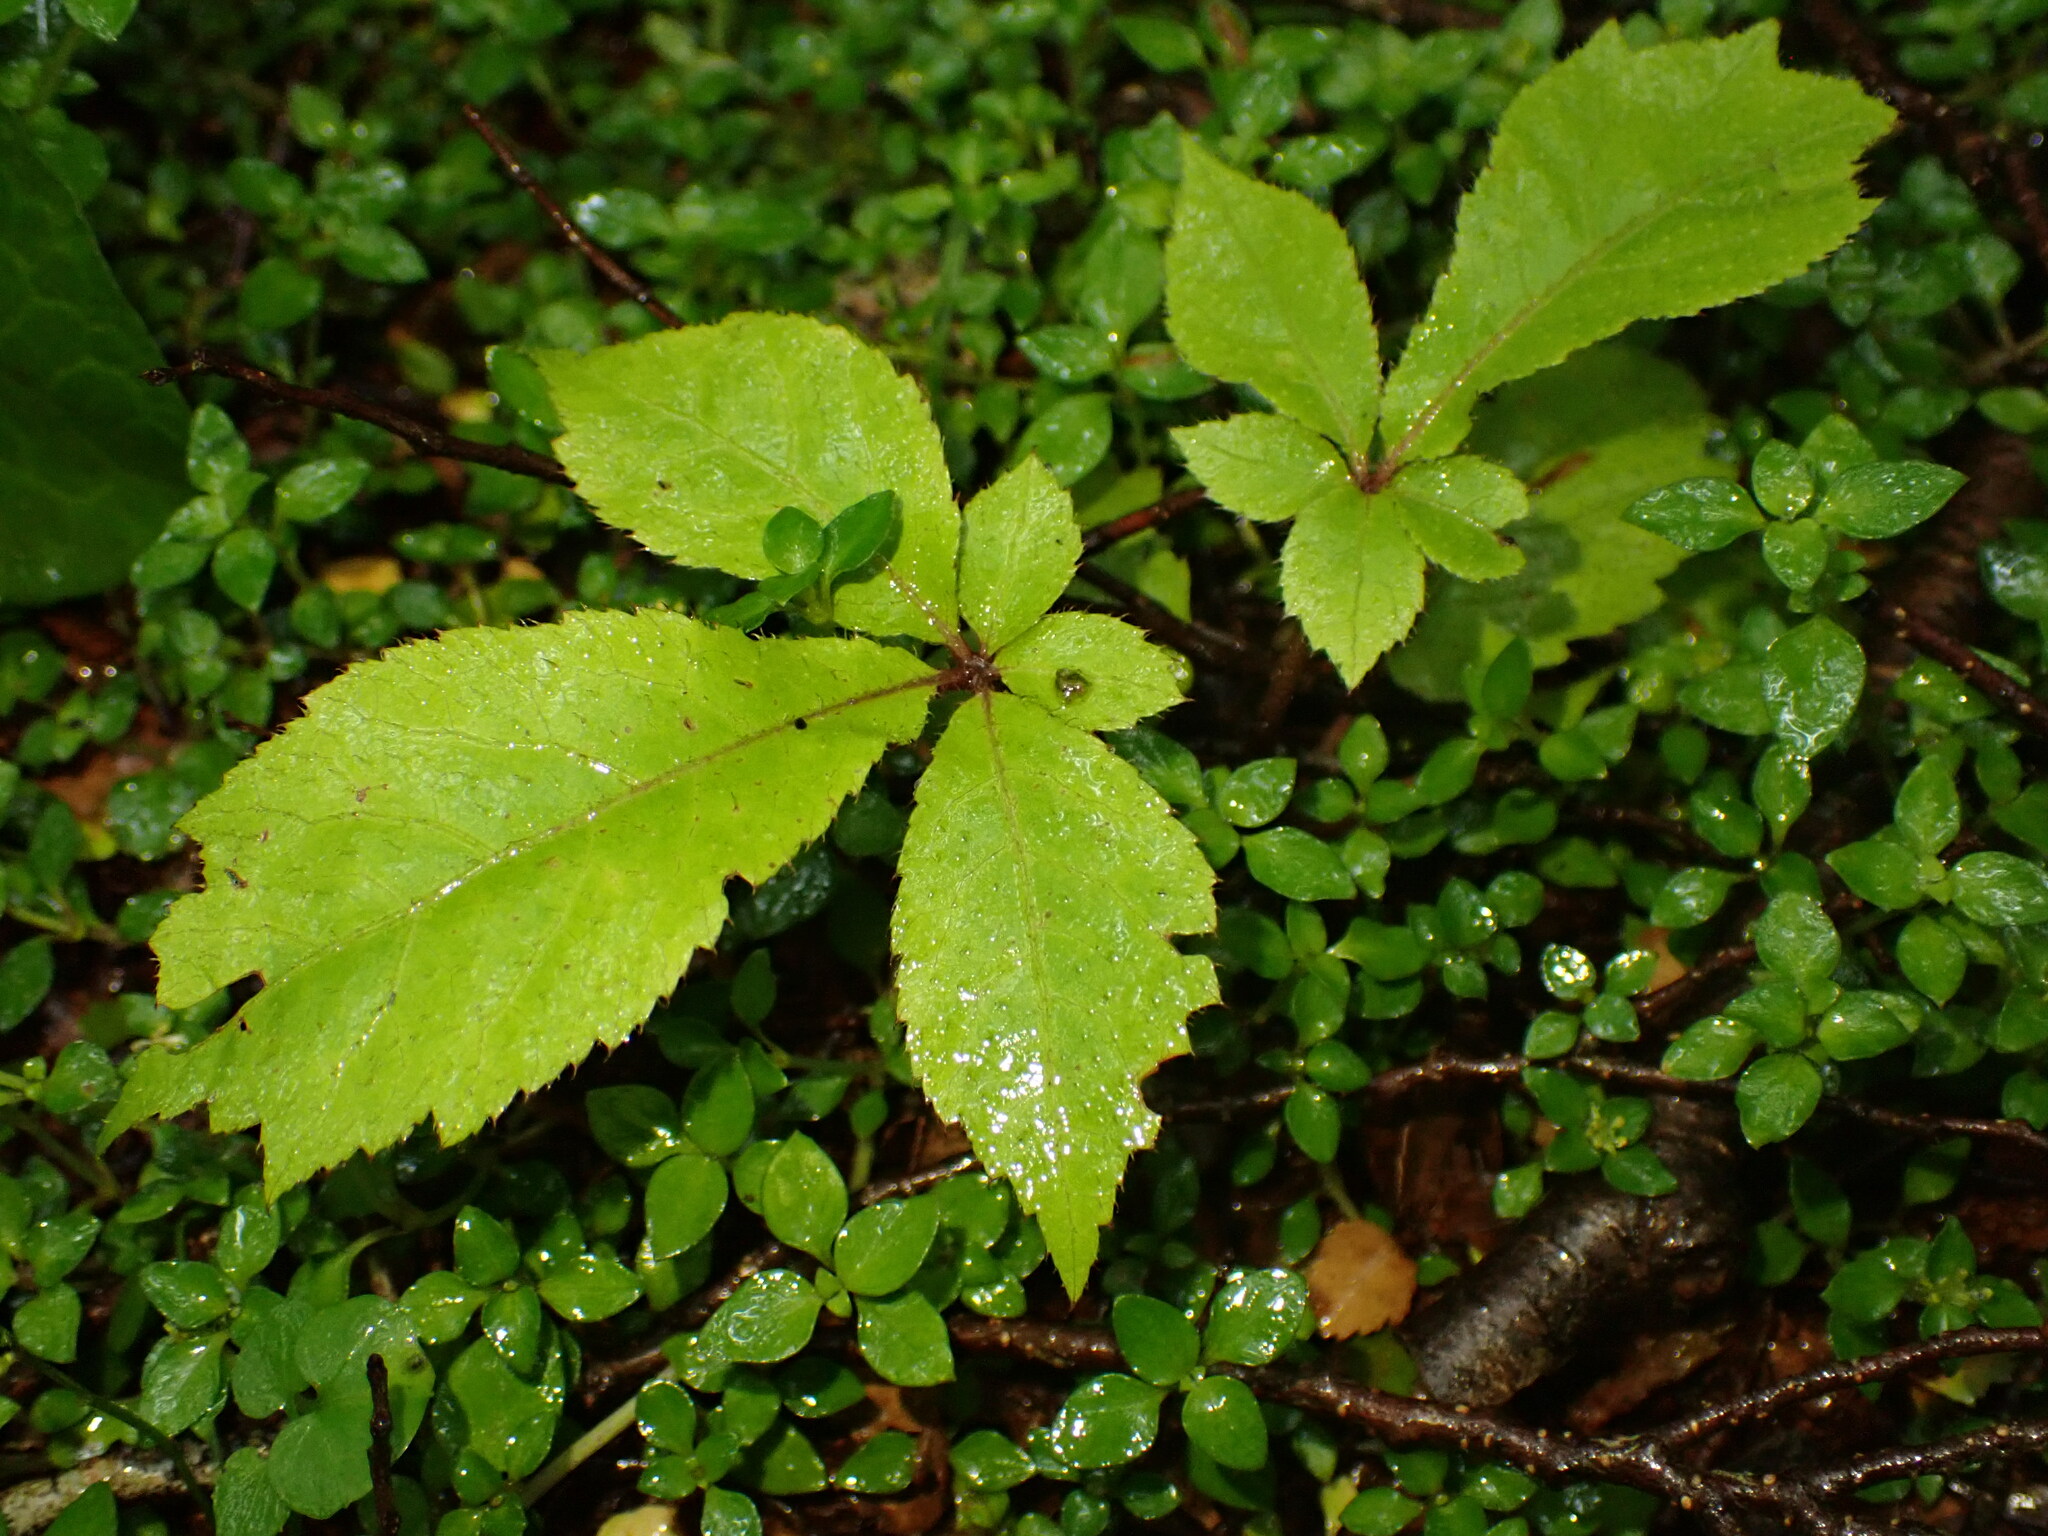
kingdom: Plantae
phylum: Tracheophyta
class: Magnoliopsida
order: Apiales
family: Araliaceae
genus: Schefflera
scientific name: Schefflera digitata
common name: Pate
